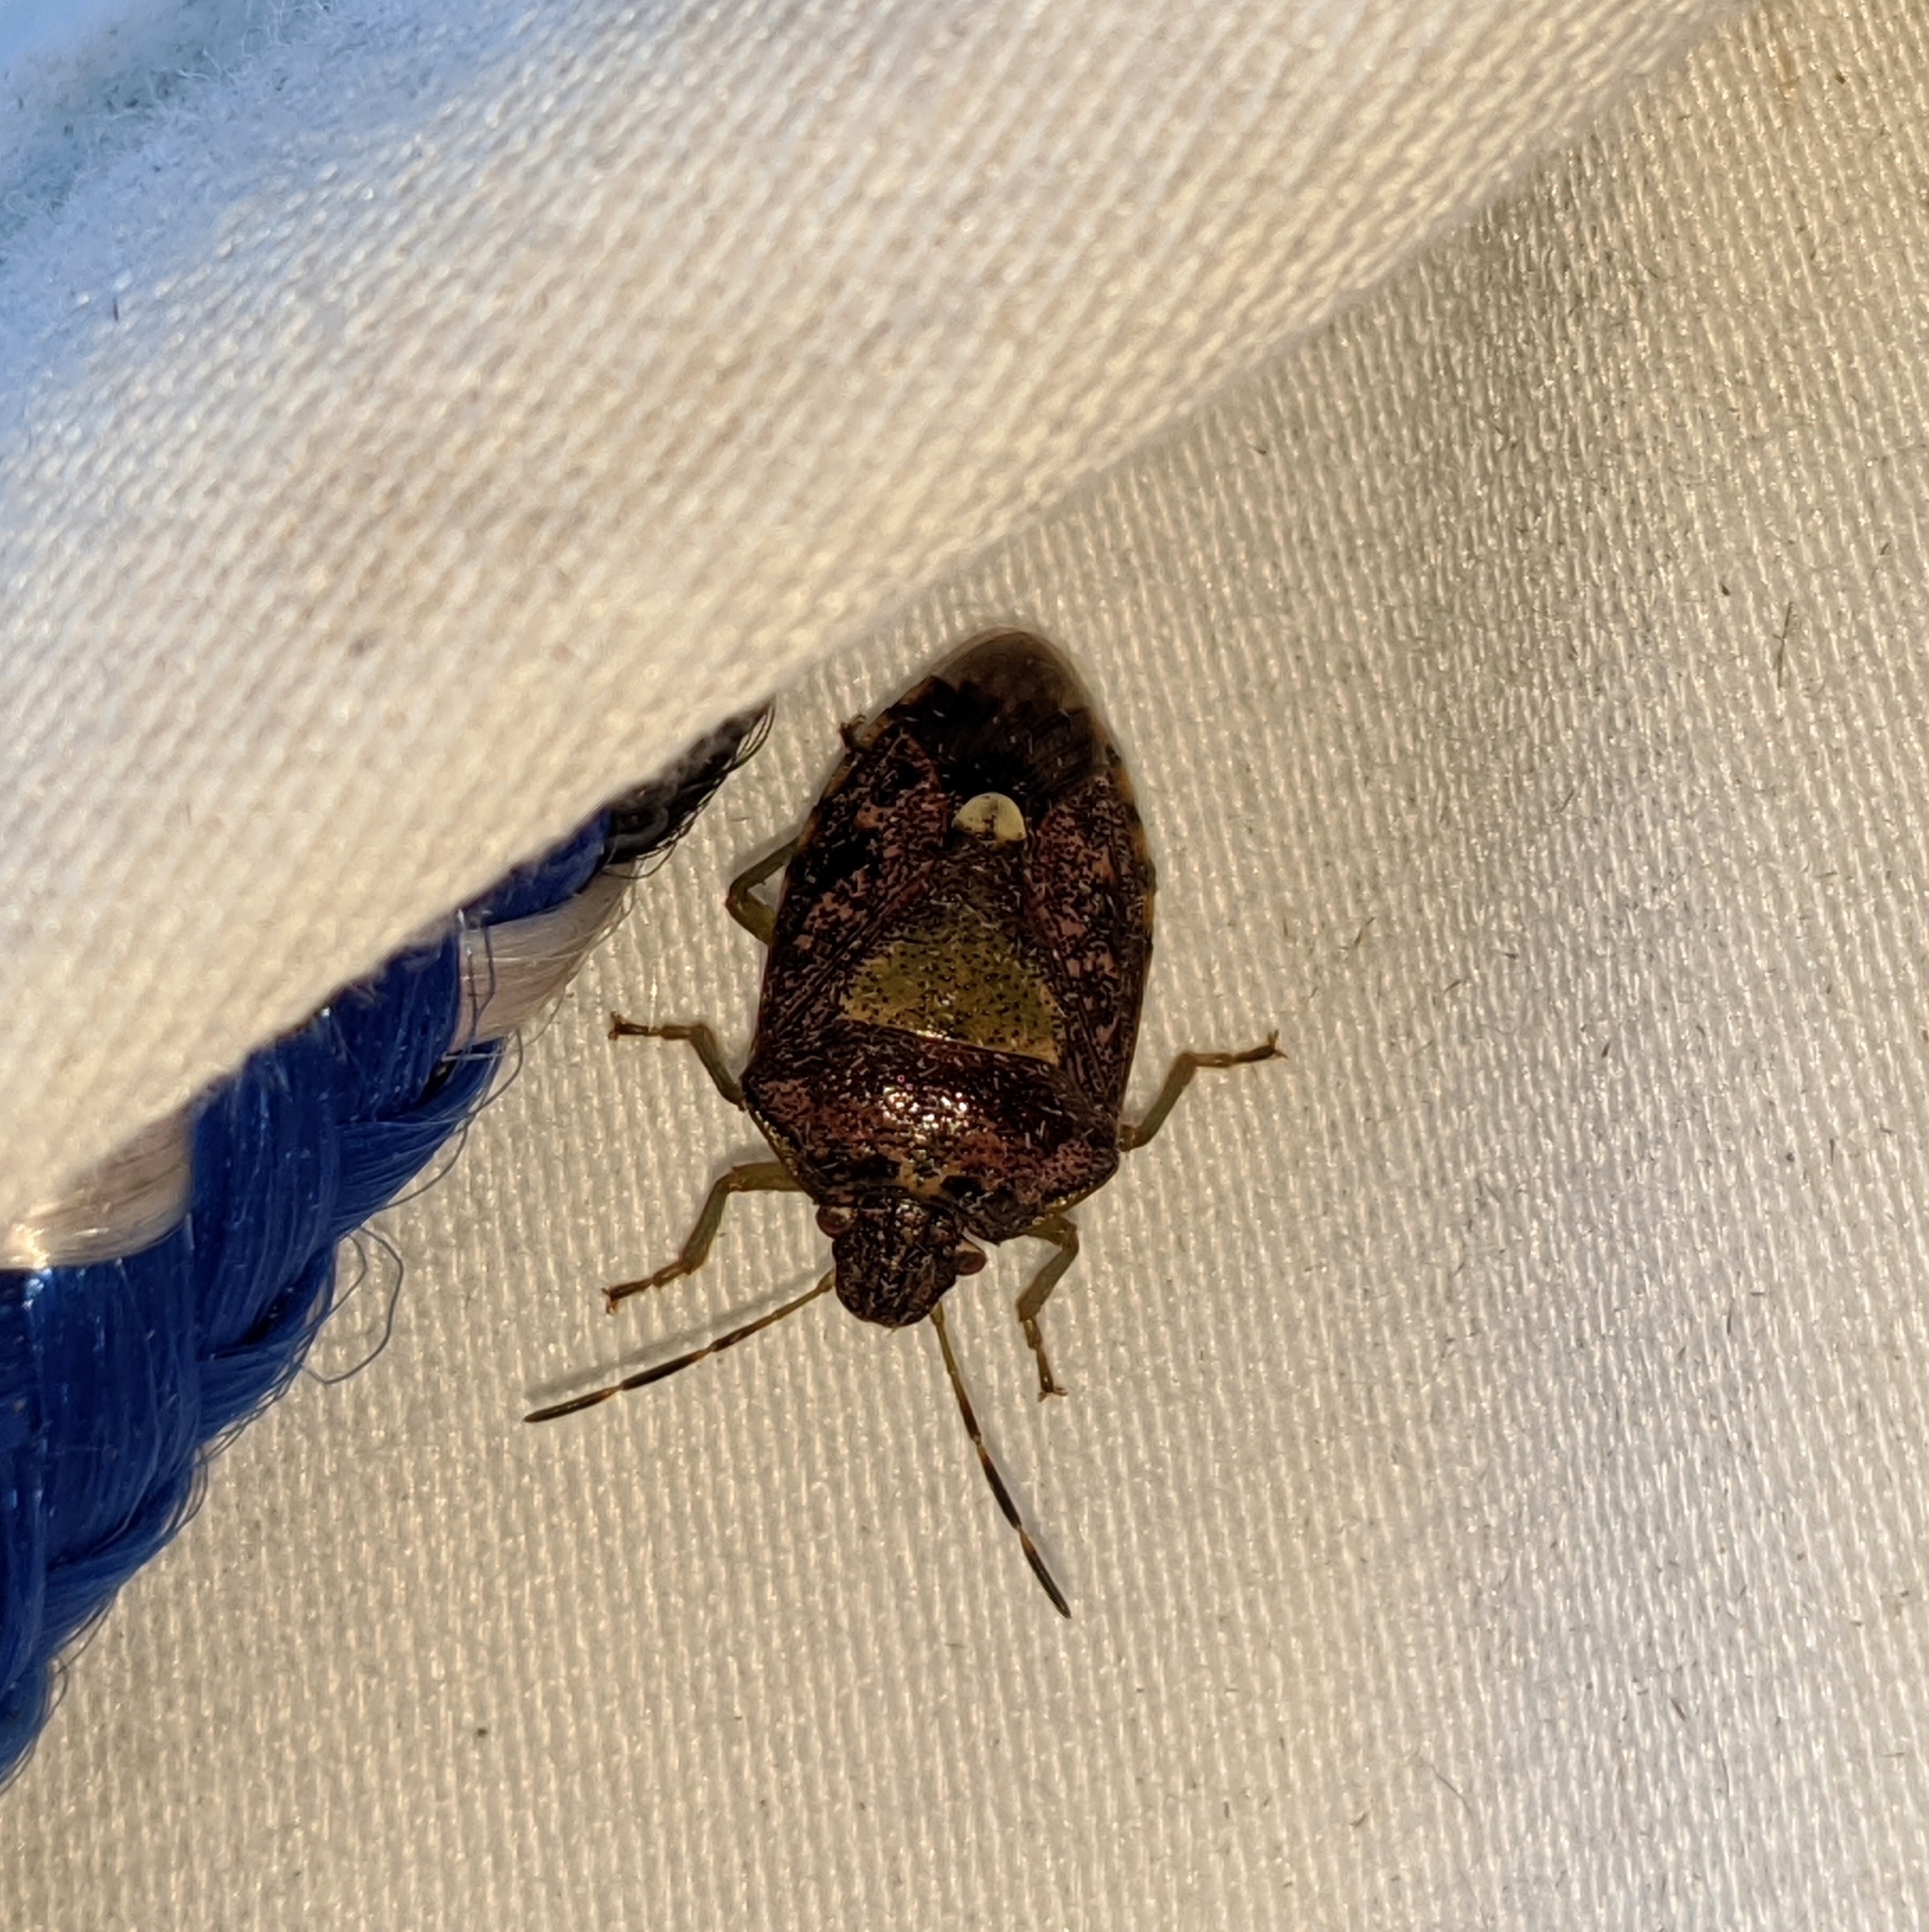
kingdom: Animalia
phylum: Arthropoda
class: Insecta
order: Hemiptera
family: Pentatomidae
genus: Banasa
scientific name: Banasa sordida
